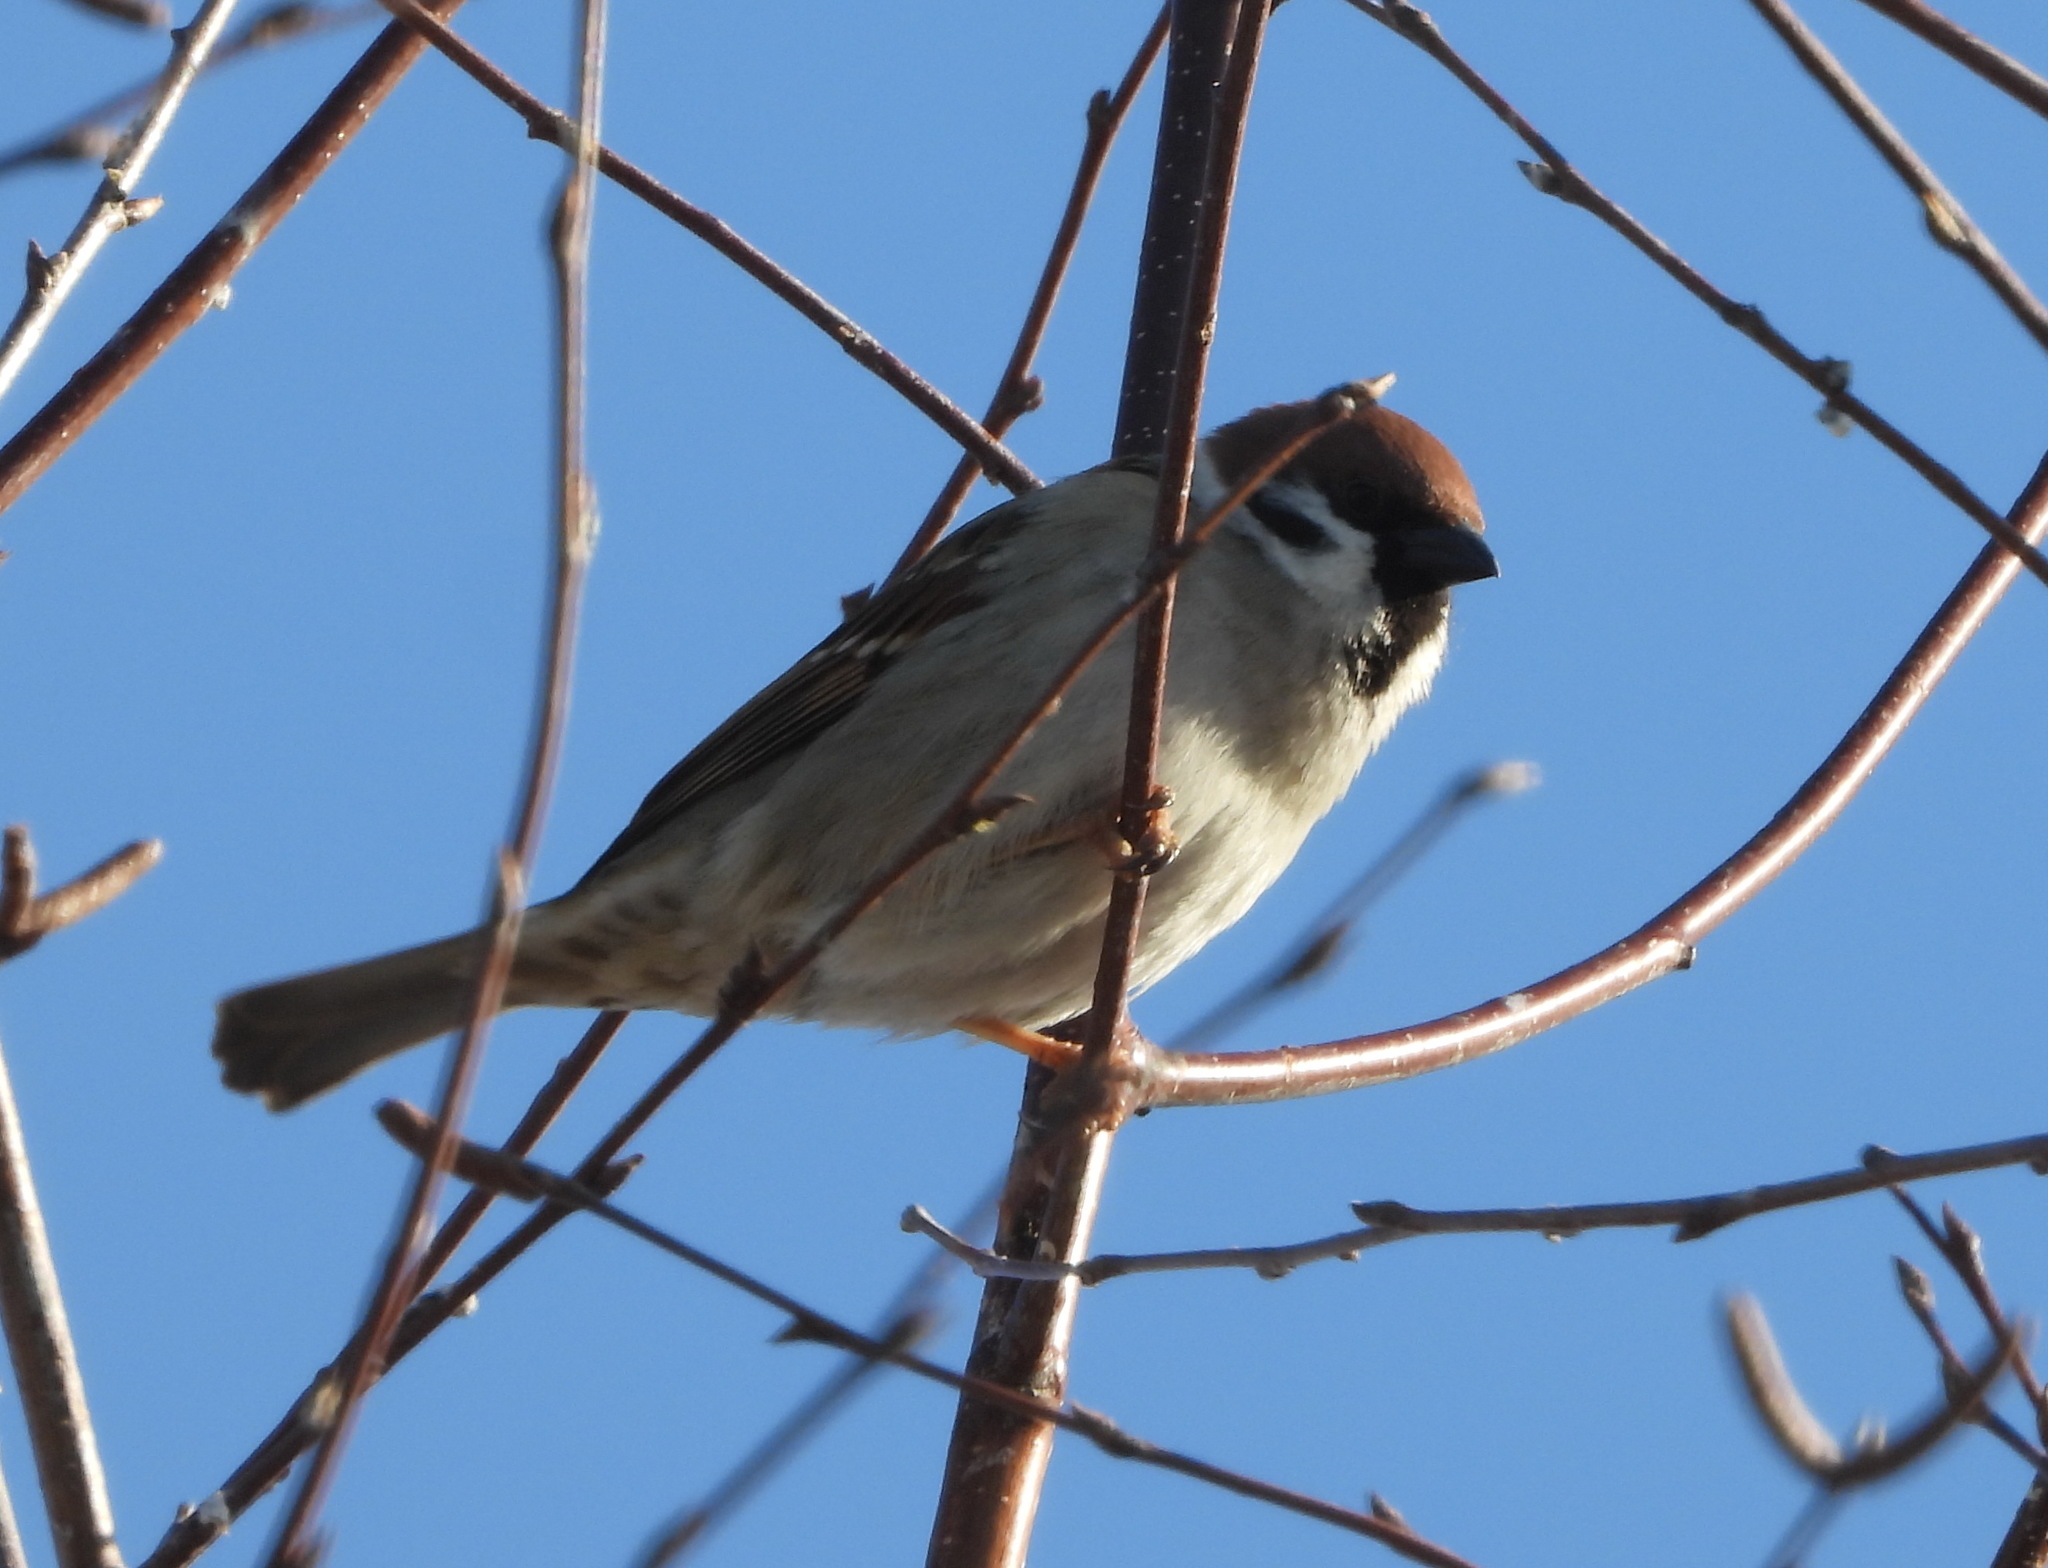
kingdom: Animalia
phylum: Chordata
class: Aves
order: Passeriformes
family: Passeridae
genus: Passer
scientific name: Passer montanus
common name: Eurasian tree sparrow
